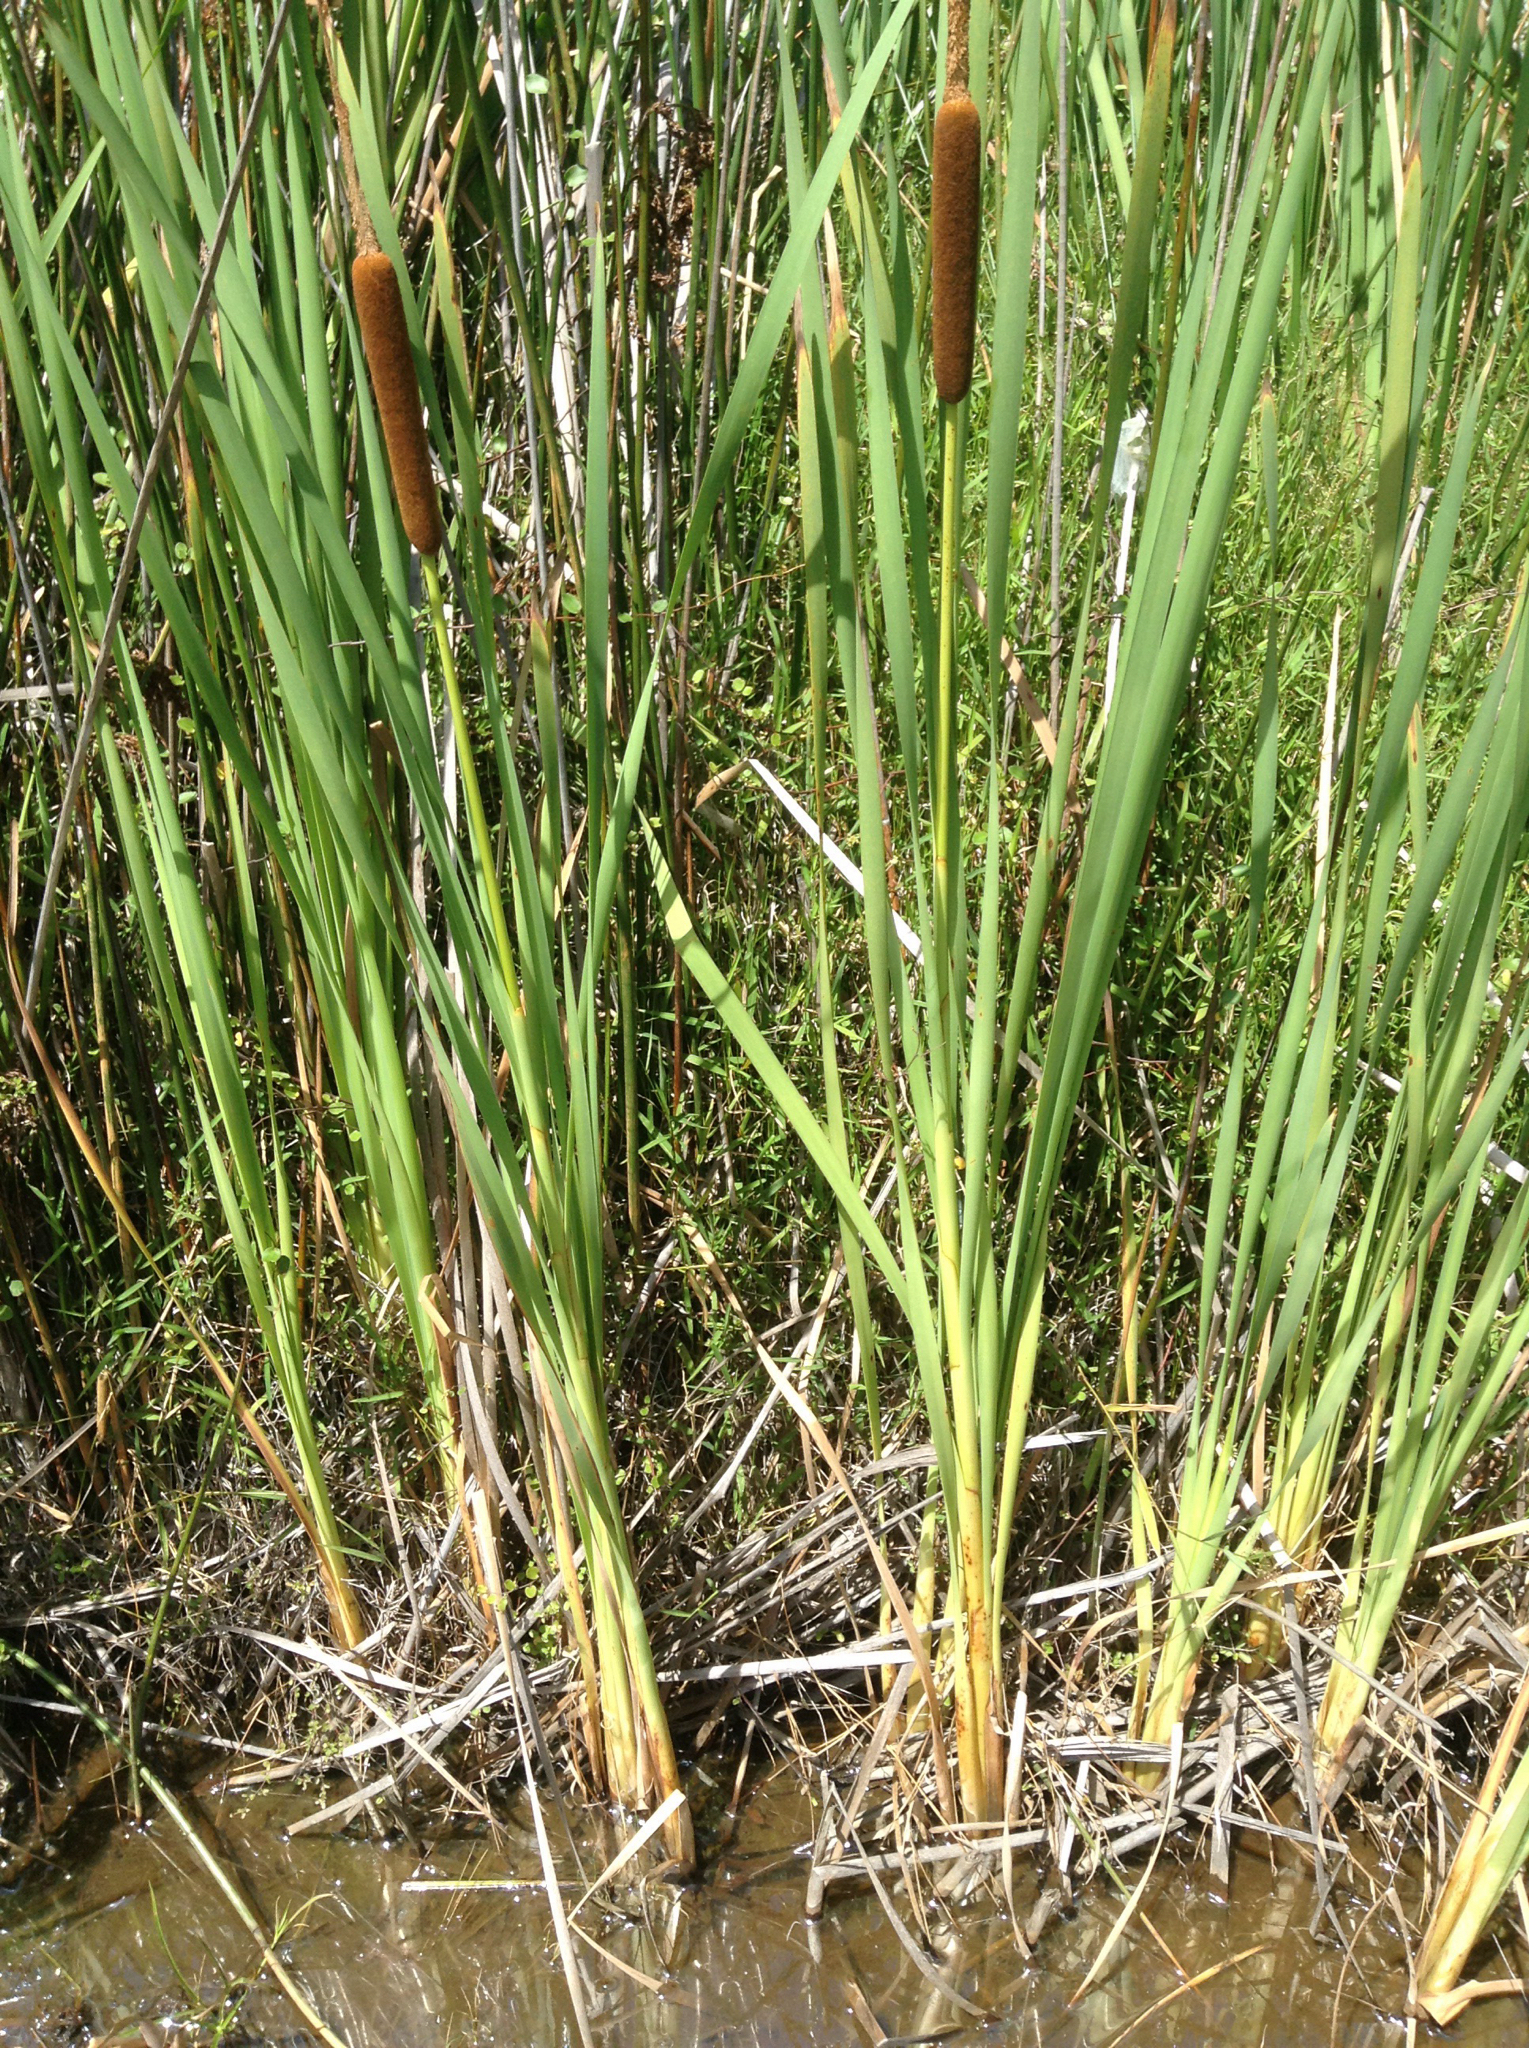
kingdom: Plantae
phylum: Tracheophyta
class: Liliopsida
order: Poales
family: Typhaceae
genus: Typha
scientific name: Typha orientalis
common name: Bullrush
